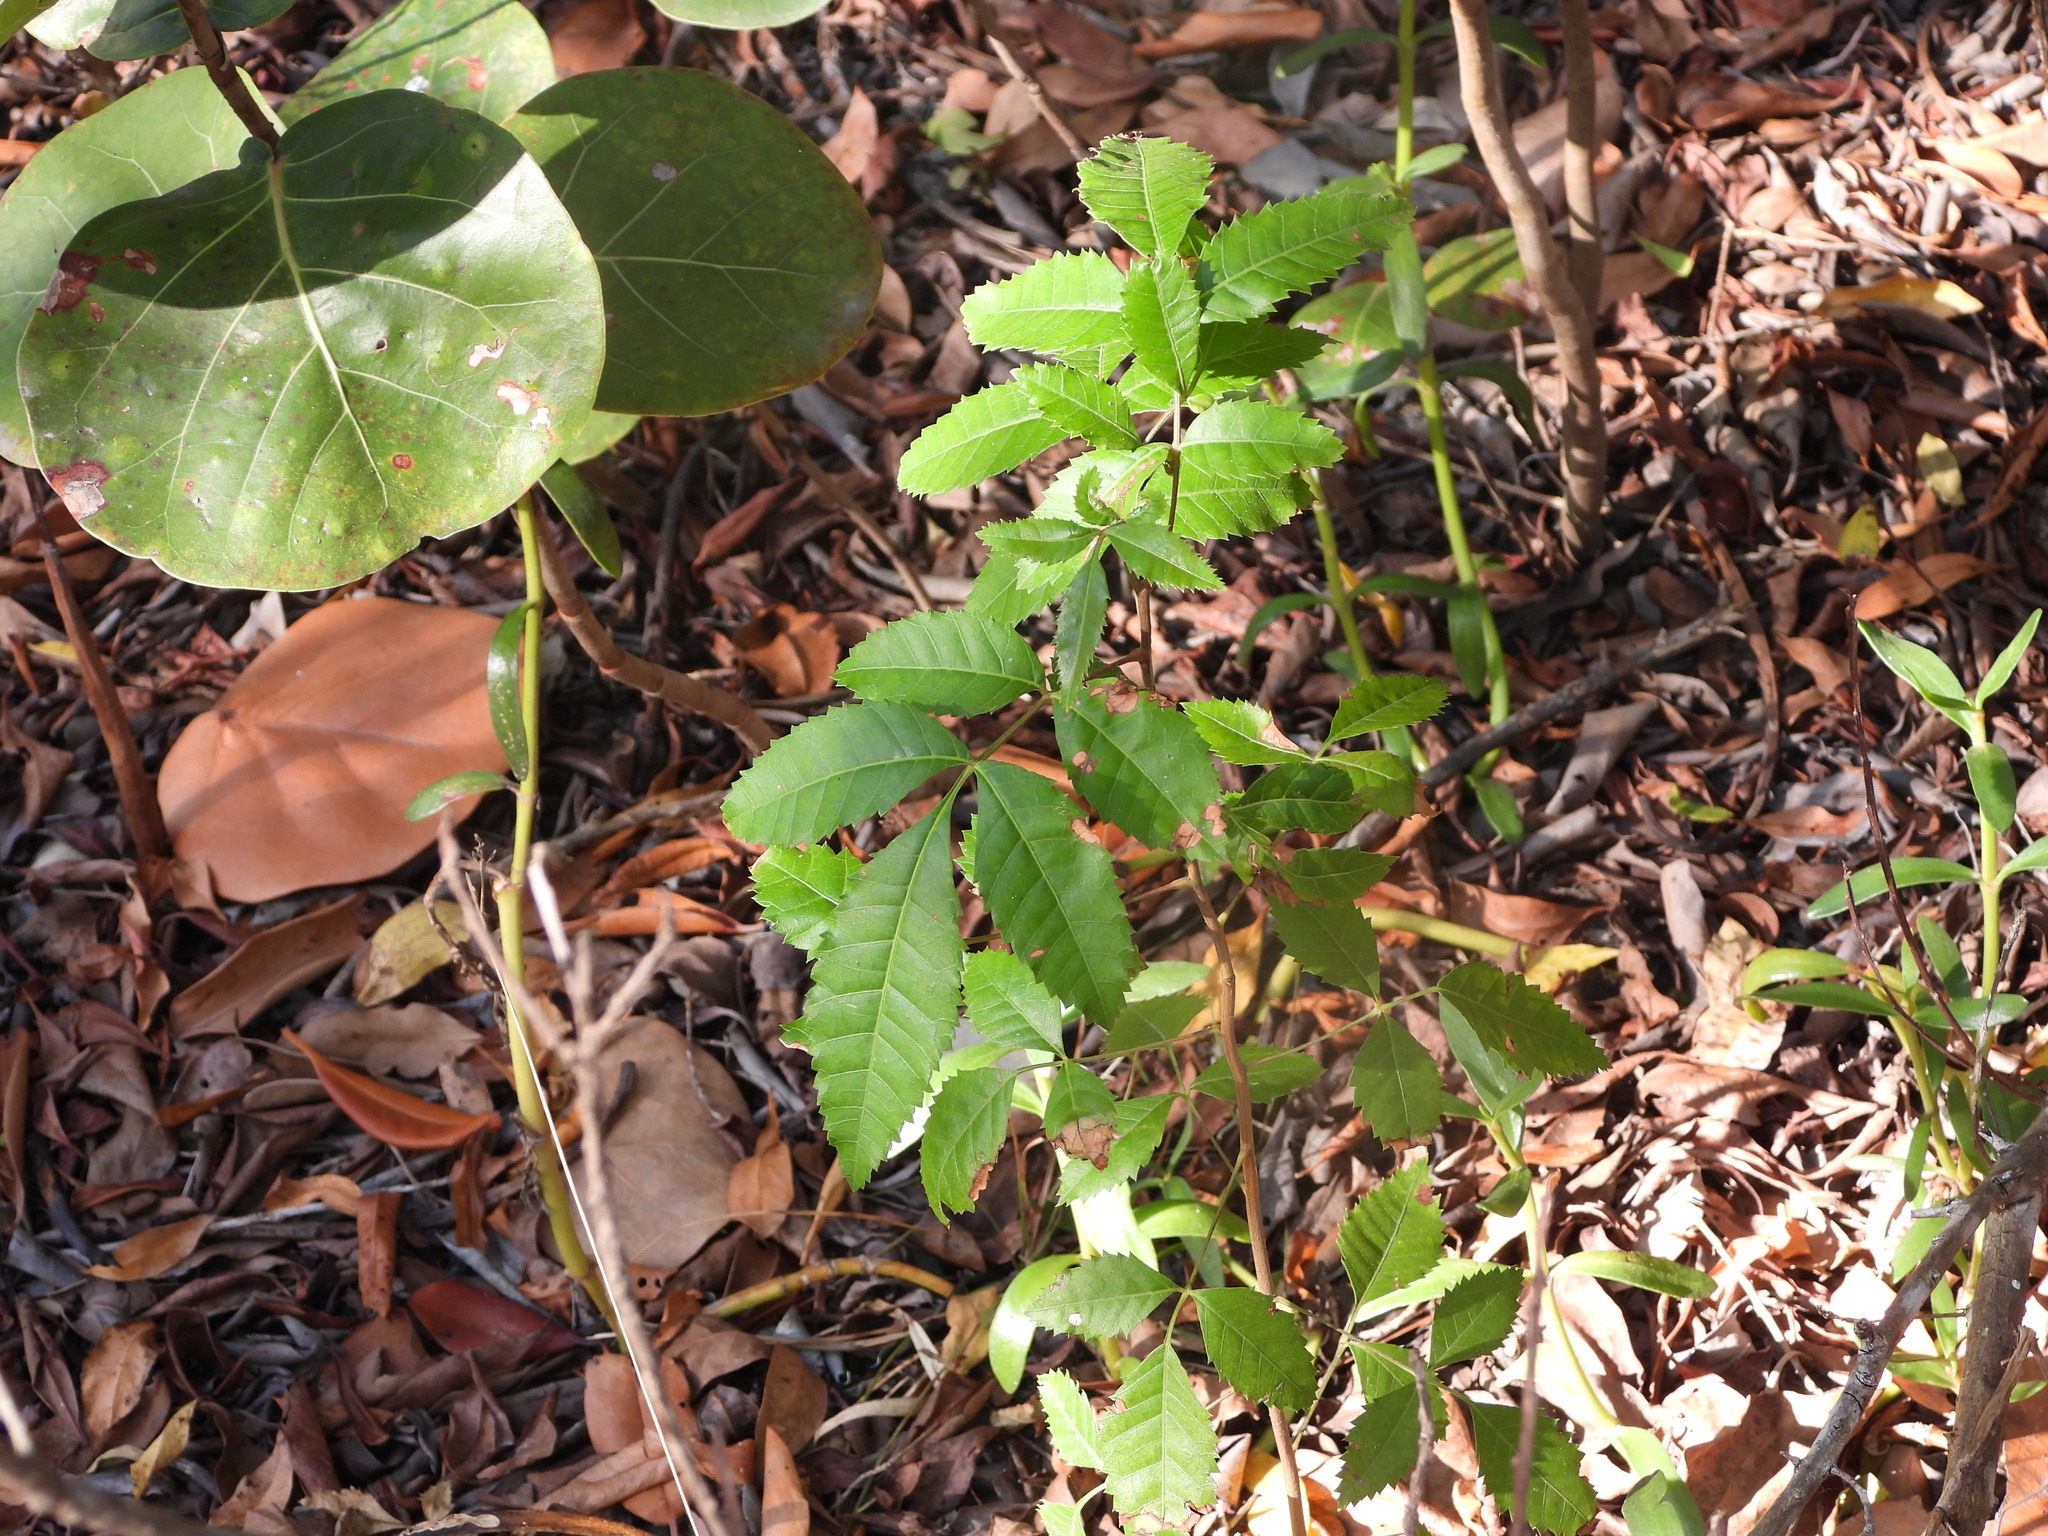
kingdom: Plantae
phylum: Tracheophyta
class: Magnoliopsida
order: Sapindales
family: Anacardiaceae
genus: Schinus
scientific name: Schinus terebinthifolia
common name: Brazilian peppertree
